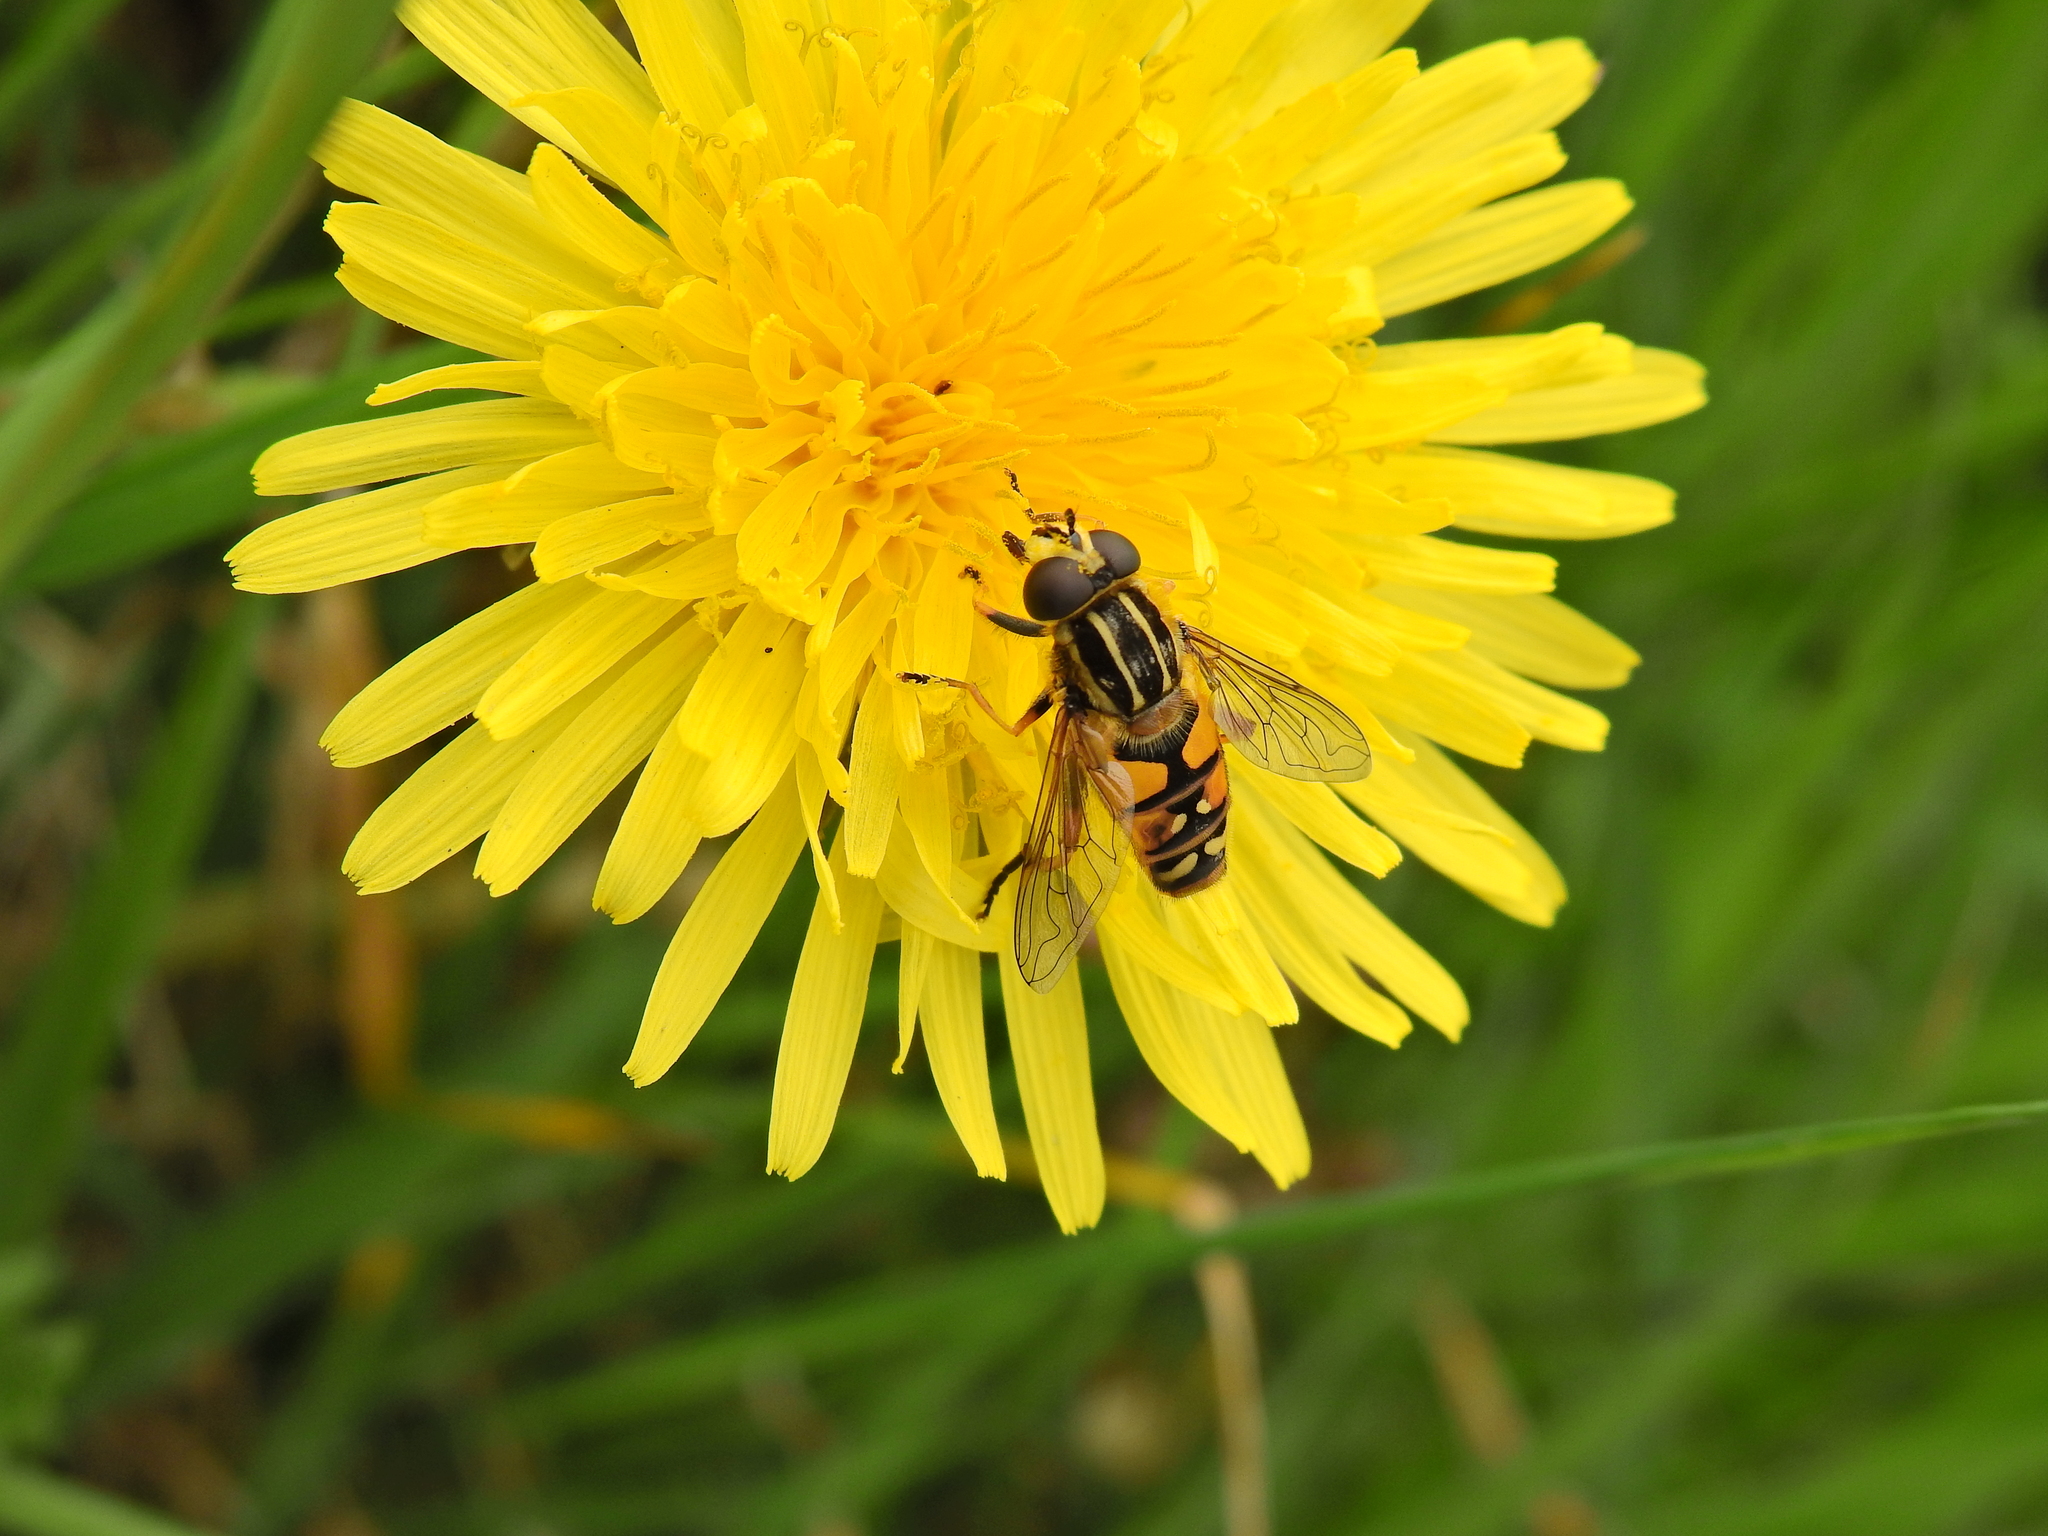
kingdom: Animalia
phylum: Arthropoda
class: Insecta
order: Diptera
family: Syrphidae
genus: Helophilus
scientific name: Helophilus pendulus
